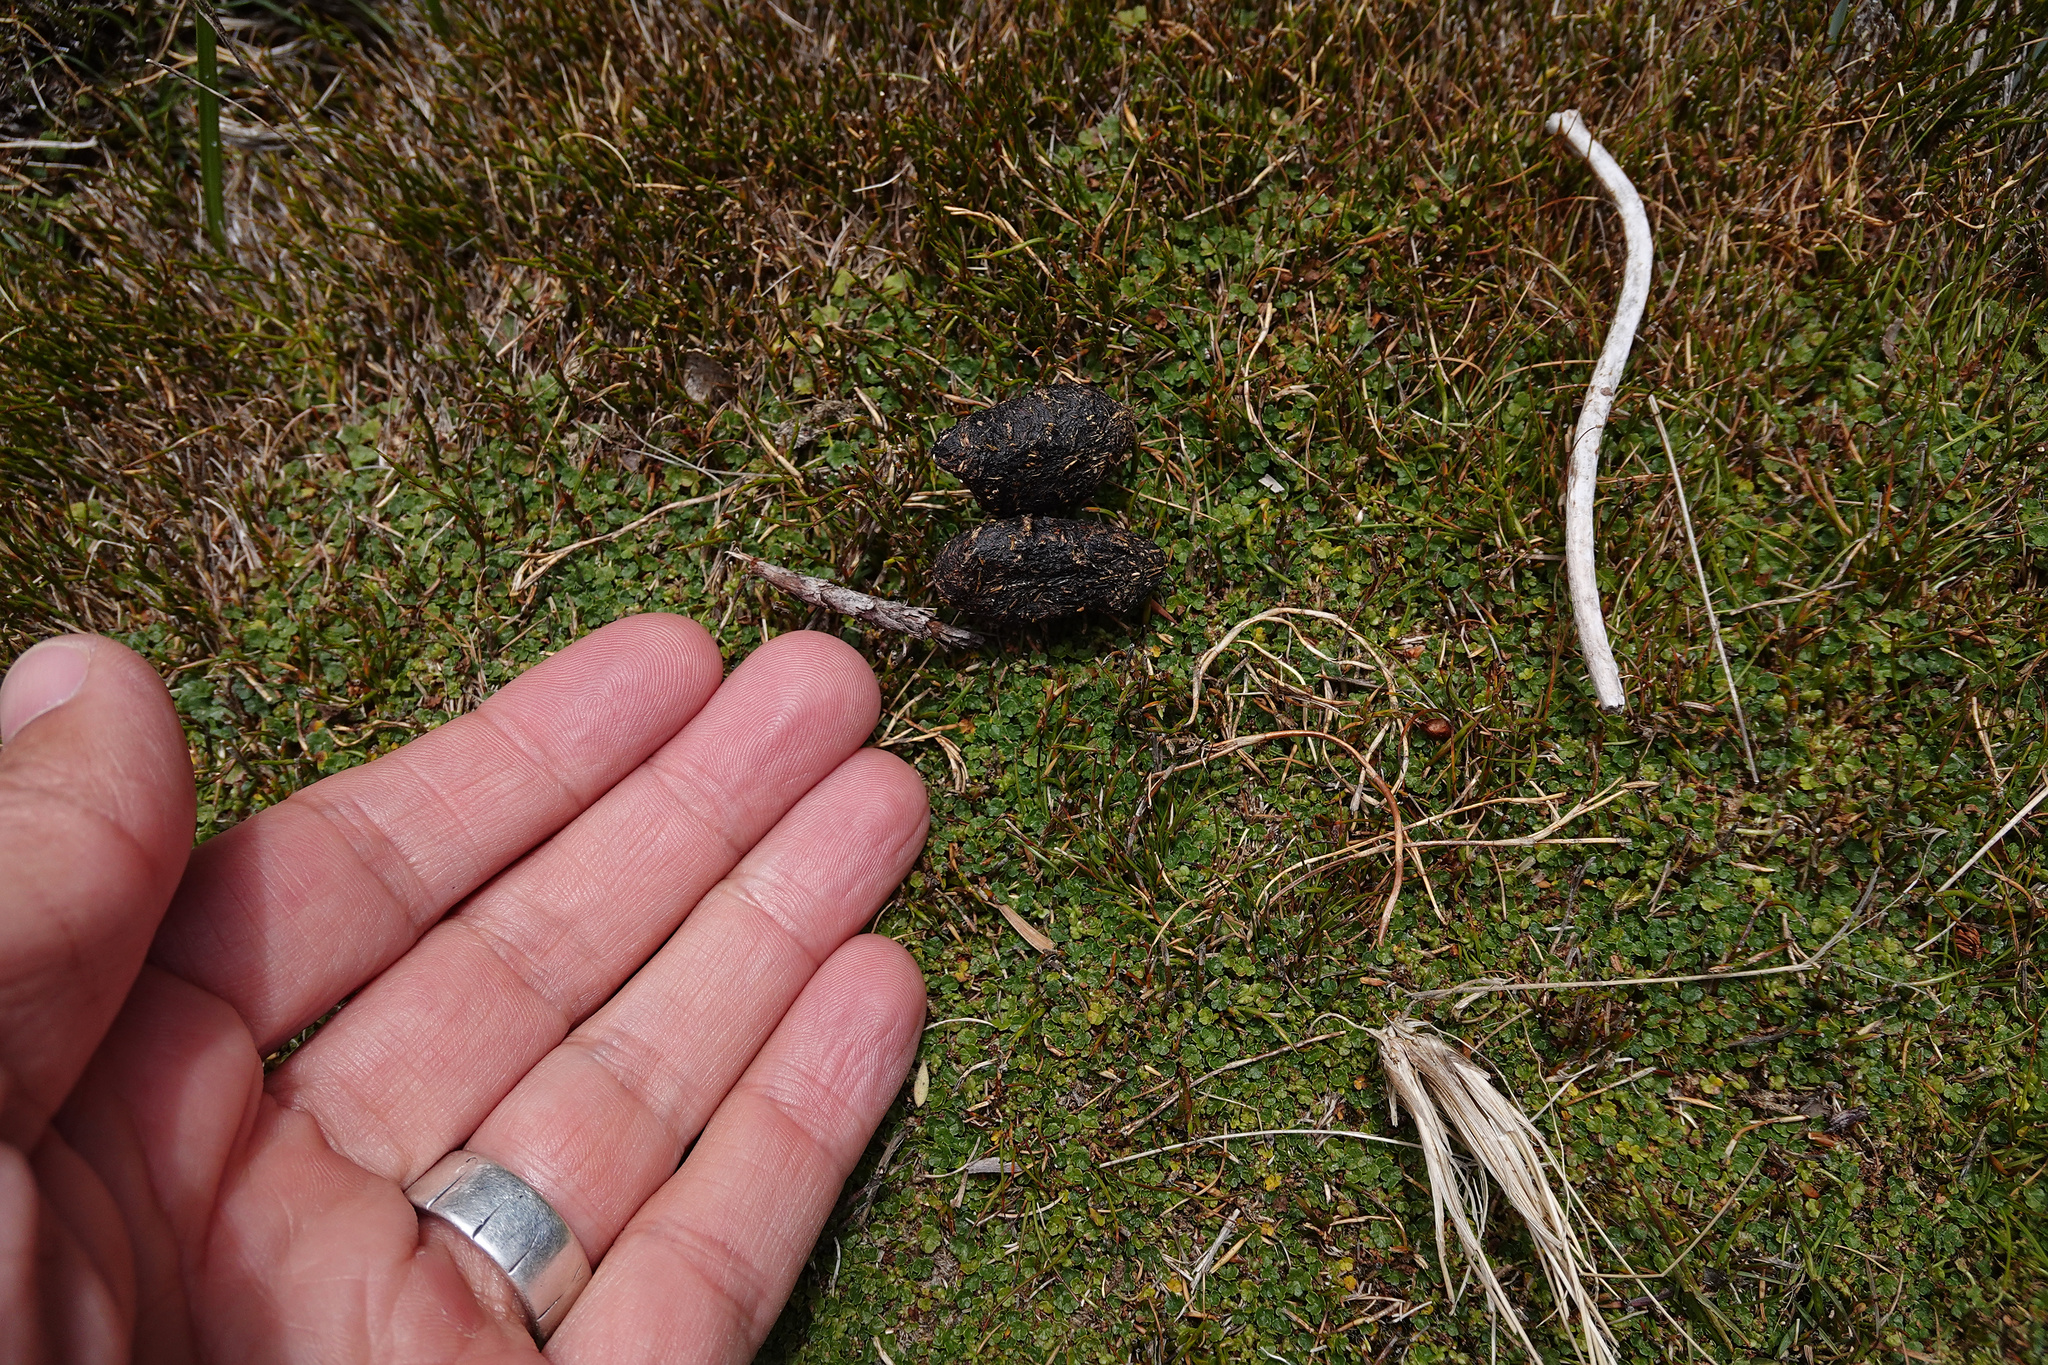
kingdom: Animalia
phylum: Chordata
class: Mammalia
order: Diprotodontia
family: Macropodidae
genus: Thylogale
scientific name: Thylogale billardierii
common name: Tasmanian pademelon
